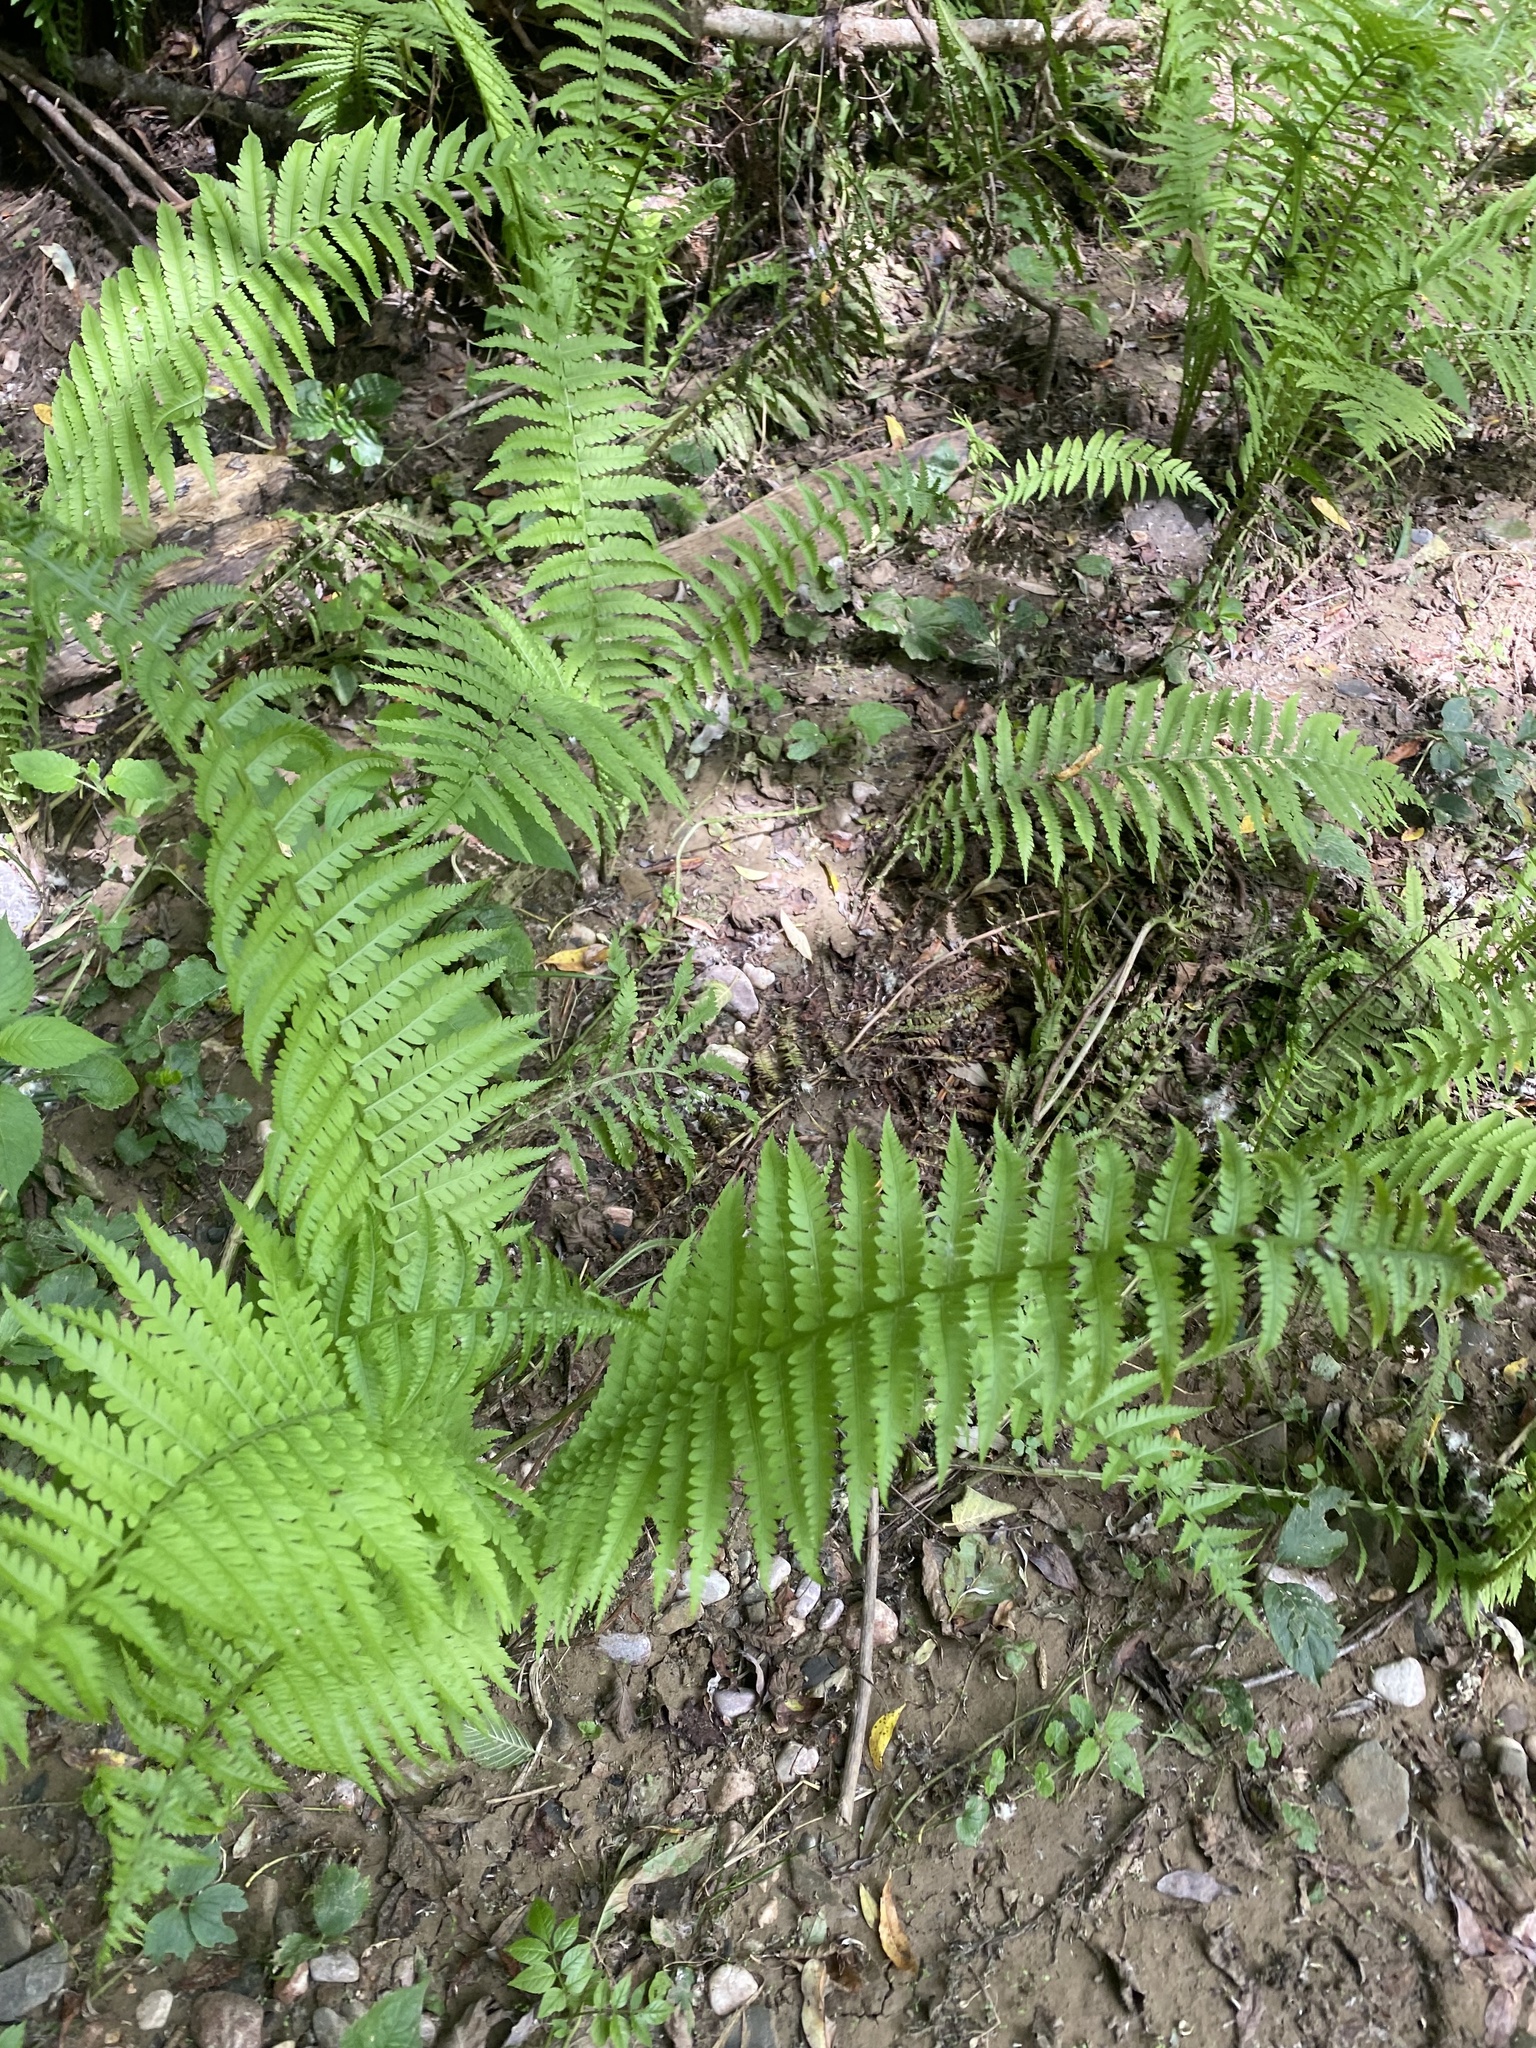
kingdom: Plantae
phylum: Tracheophyta
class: Polypodiopsida
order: Polypodiales
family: Onocleaceae
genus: Matteuccia
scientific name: Matteuccia struthiopteris
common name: Ostrich fern
